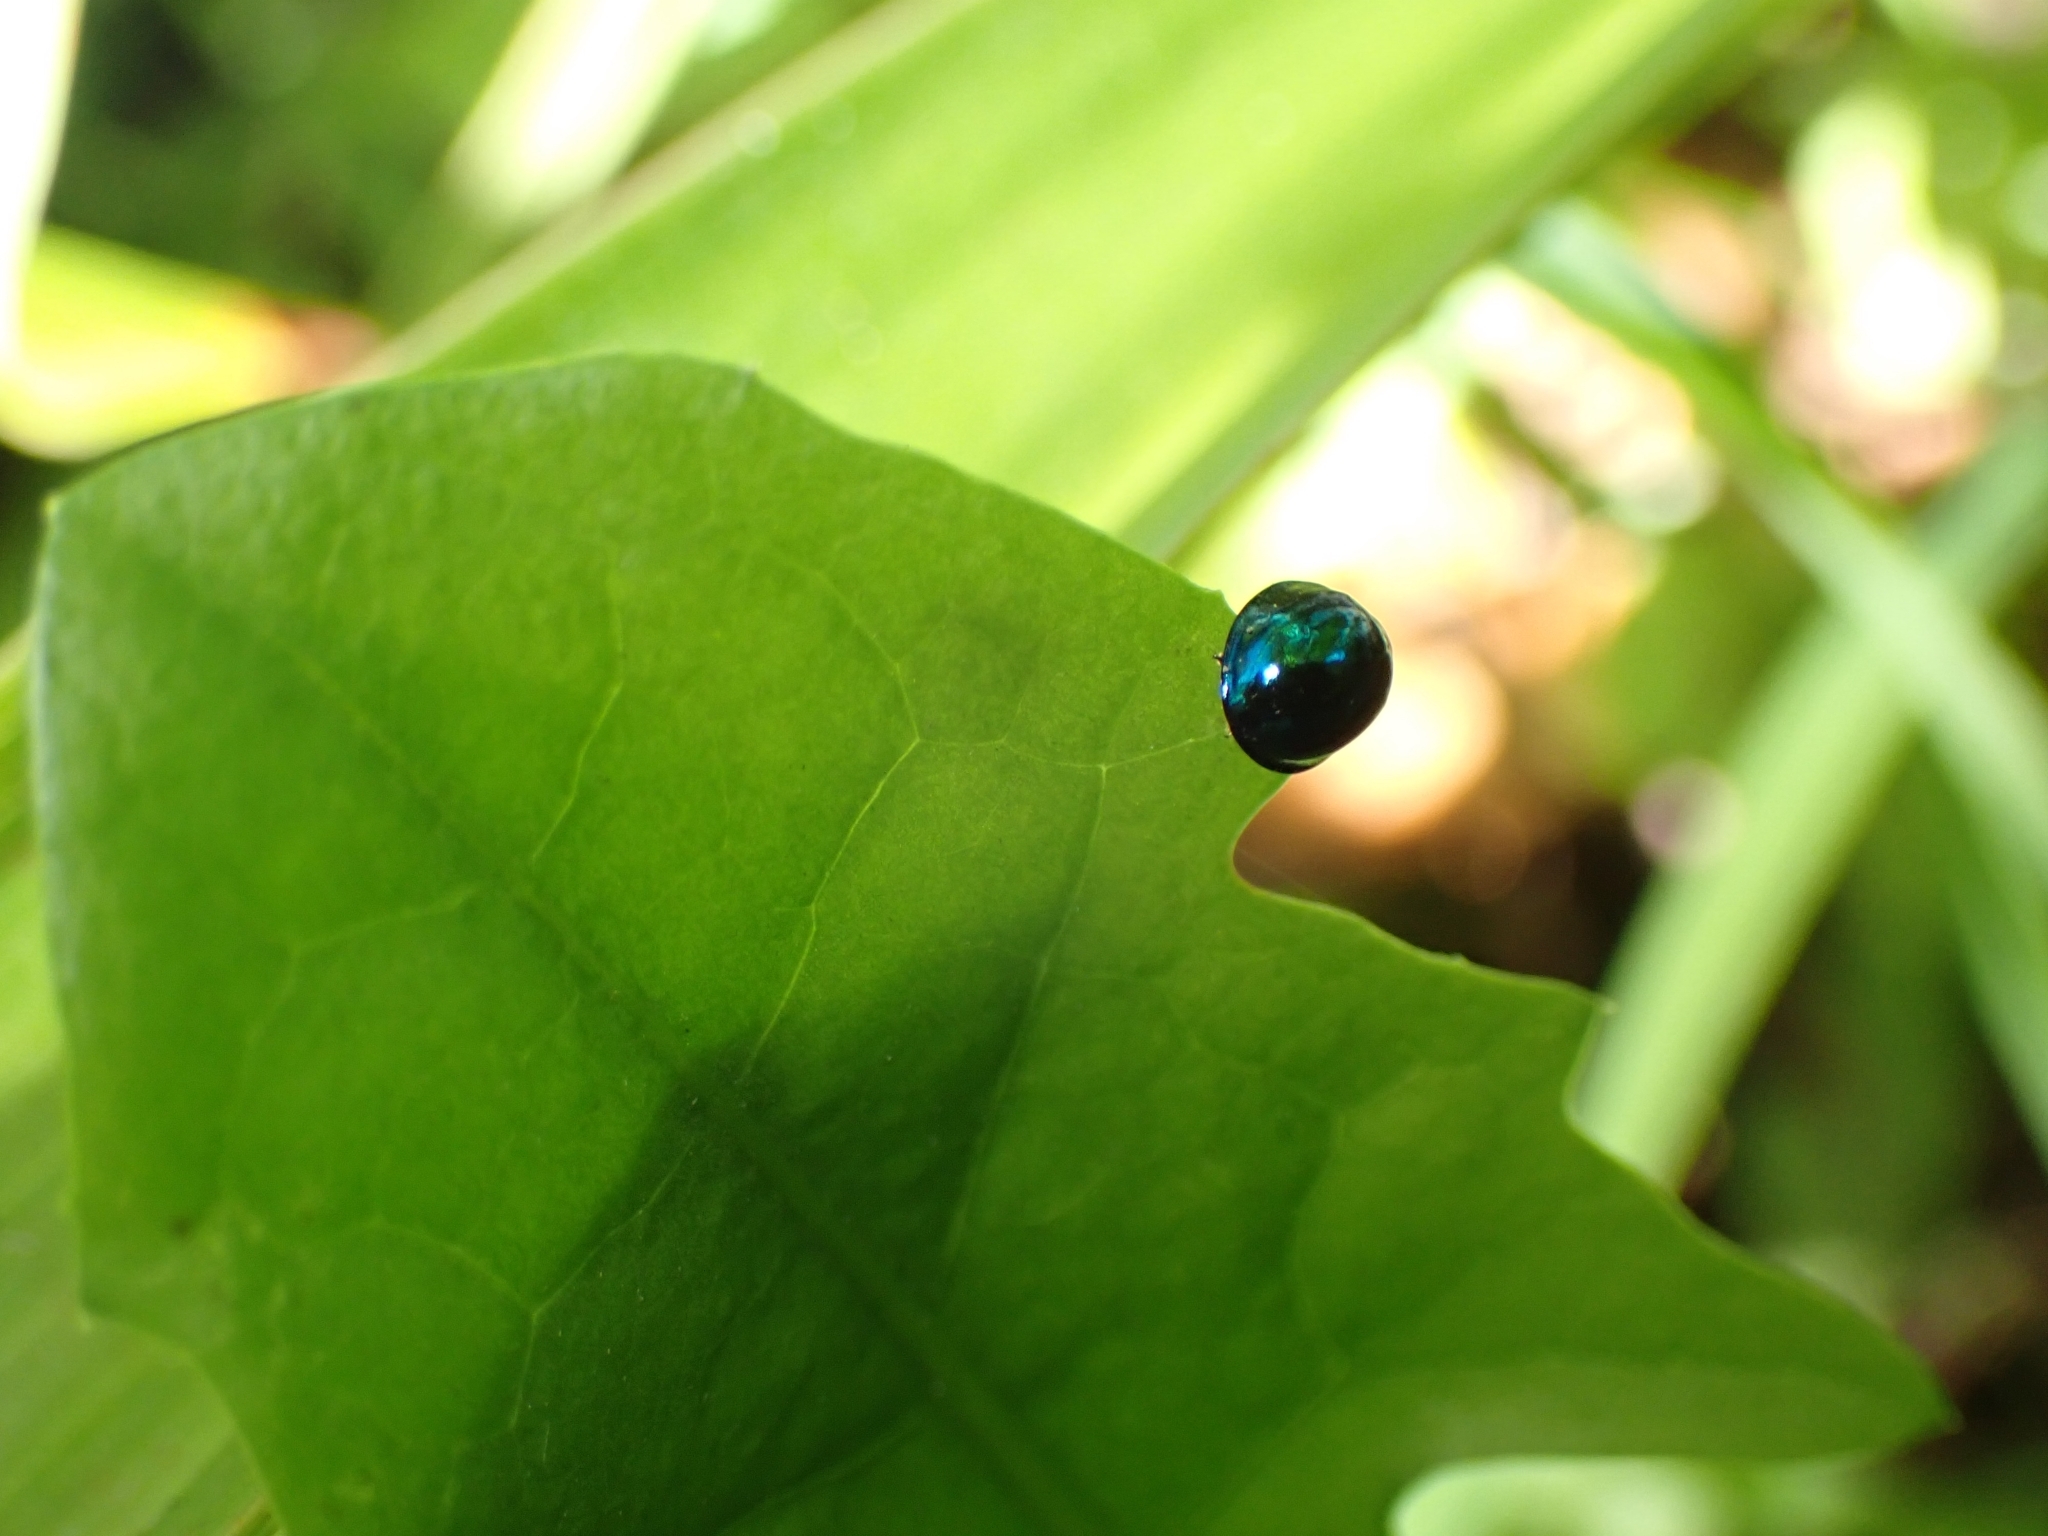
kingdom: Animalia
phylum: Arthropoda
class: Insecta
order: Coleoptera
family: Coccinellidae
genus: Halmus
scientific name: Halmus chalybeus
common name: Steel blue ladybird beetle
